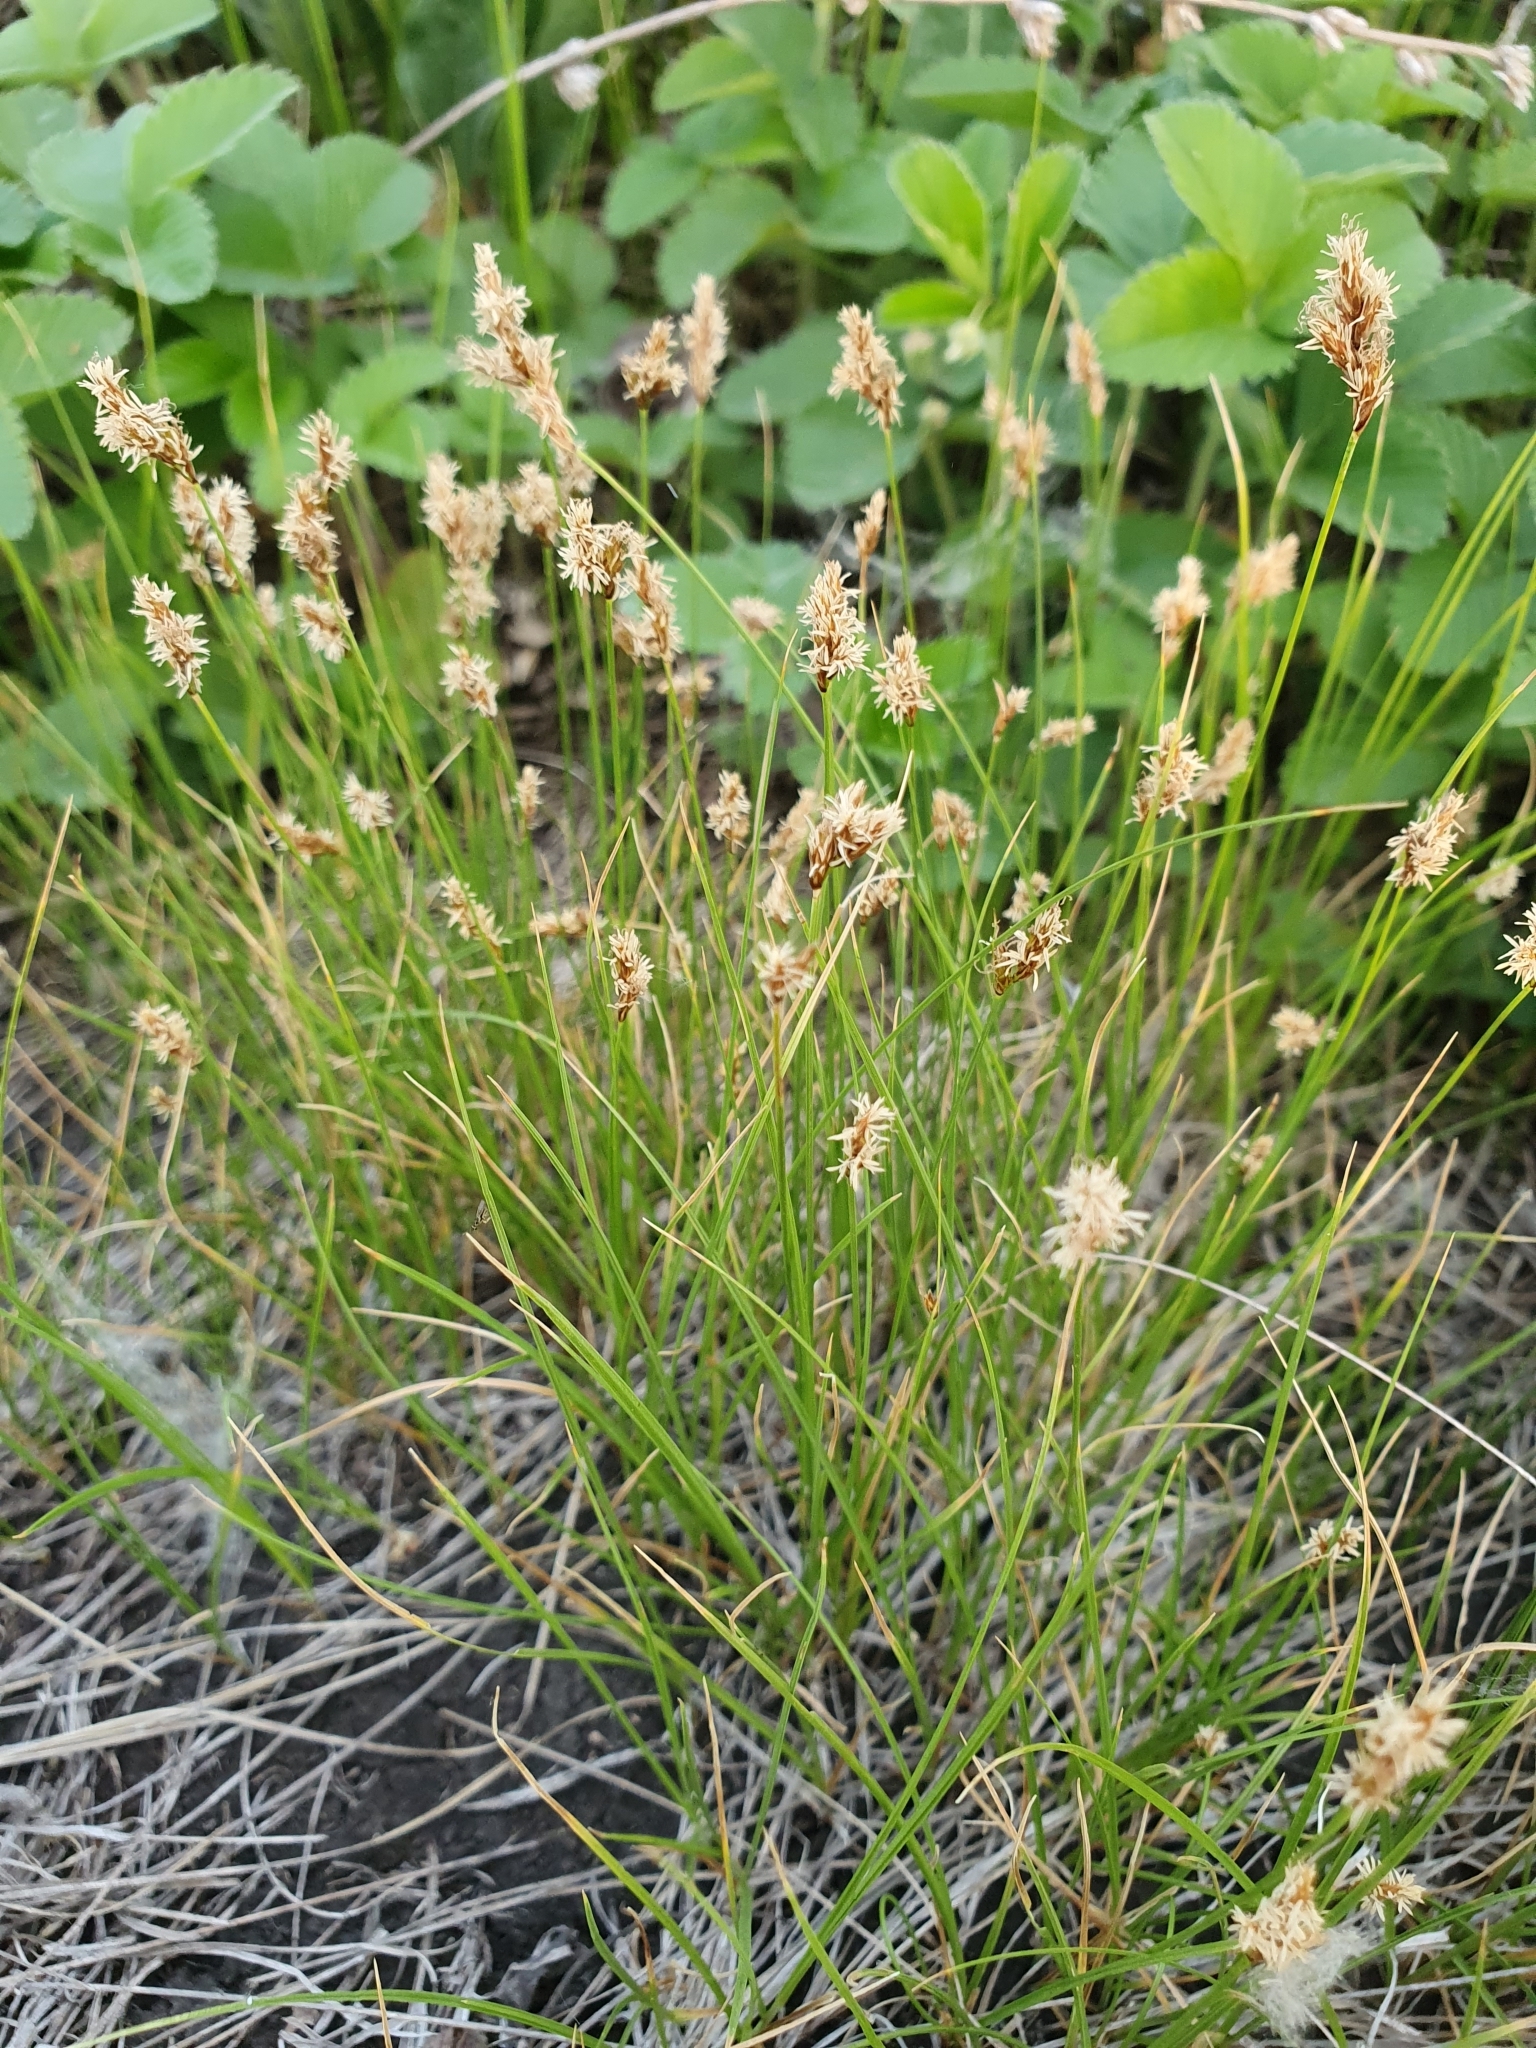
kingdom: Plantae
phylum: Tracheophyta
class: Liliopsida
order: Poales
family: Cyperaceae
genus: Carex
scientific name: Carex praecox
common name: Early sedge
